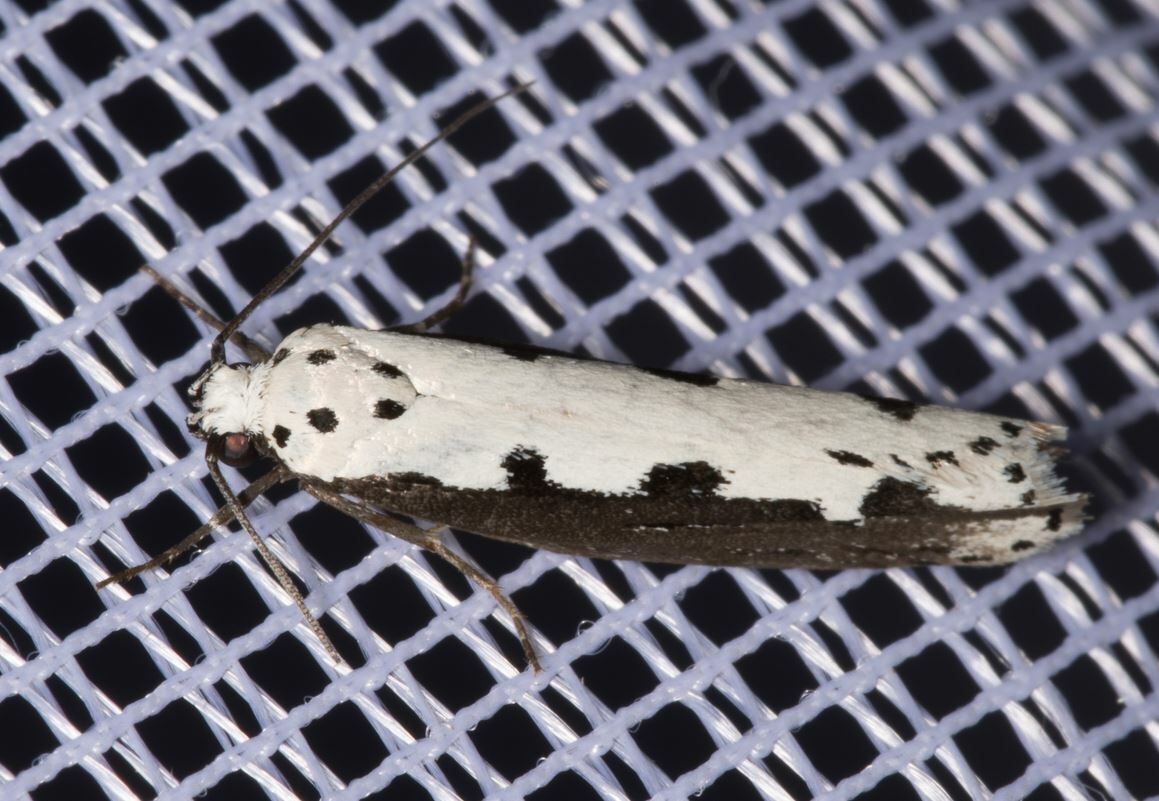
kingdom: Animalia
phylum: Arthropoda
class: Insecta
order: Lepidoptera
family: Ethmiidae
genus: Ethmia
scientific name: Ethmia bipunctella
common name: Bordered ermel
